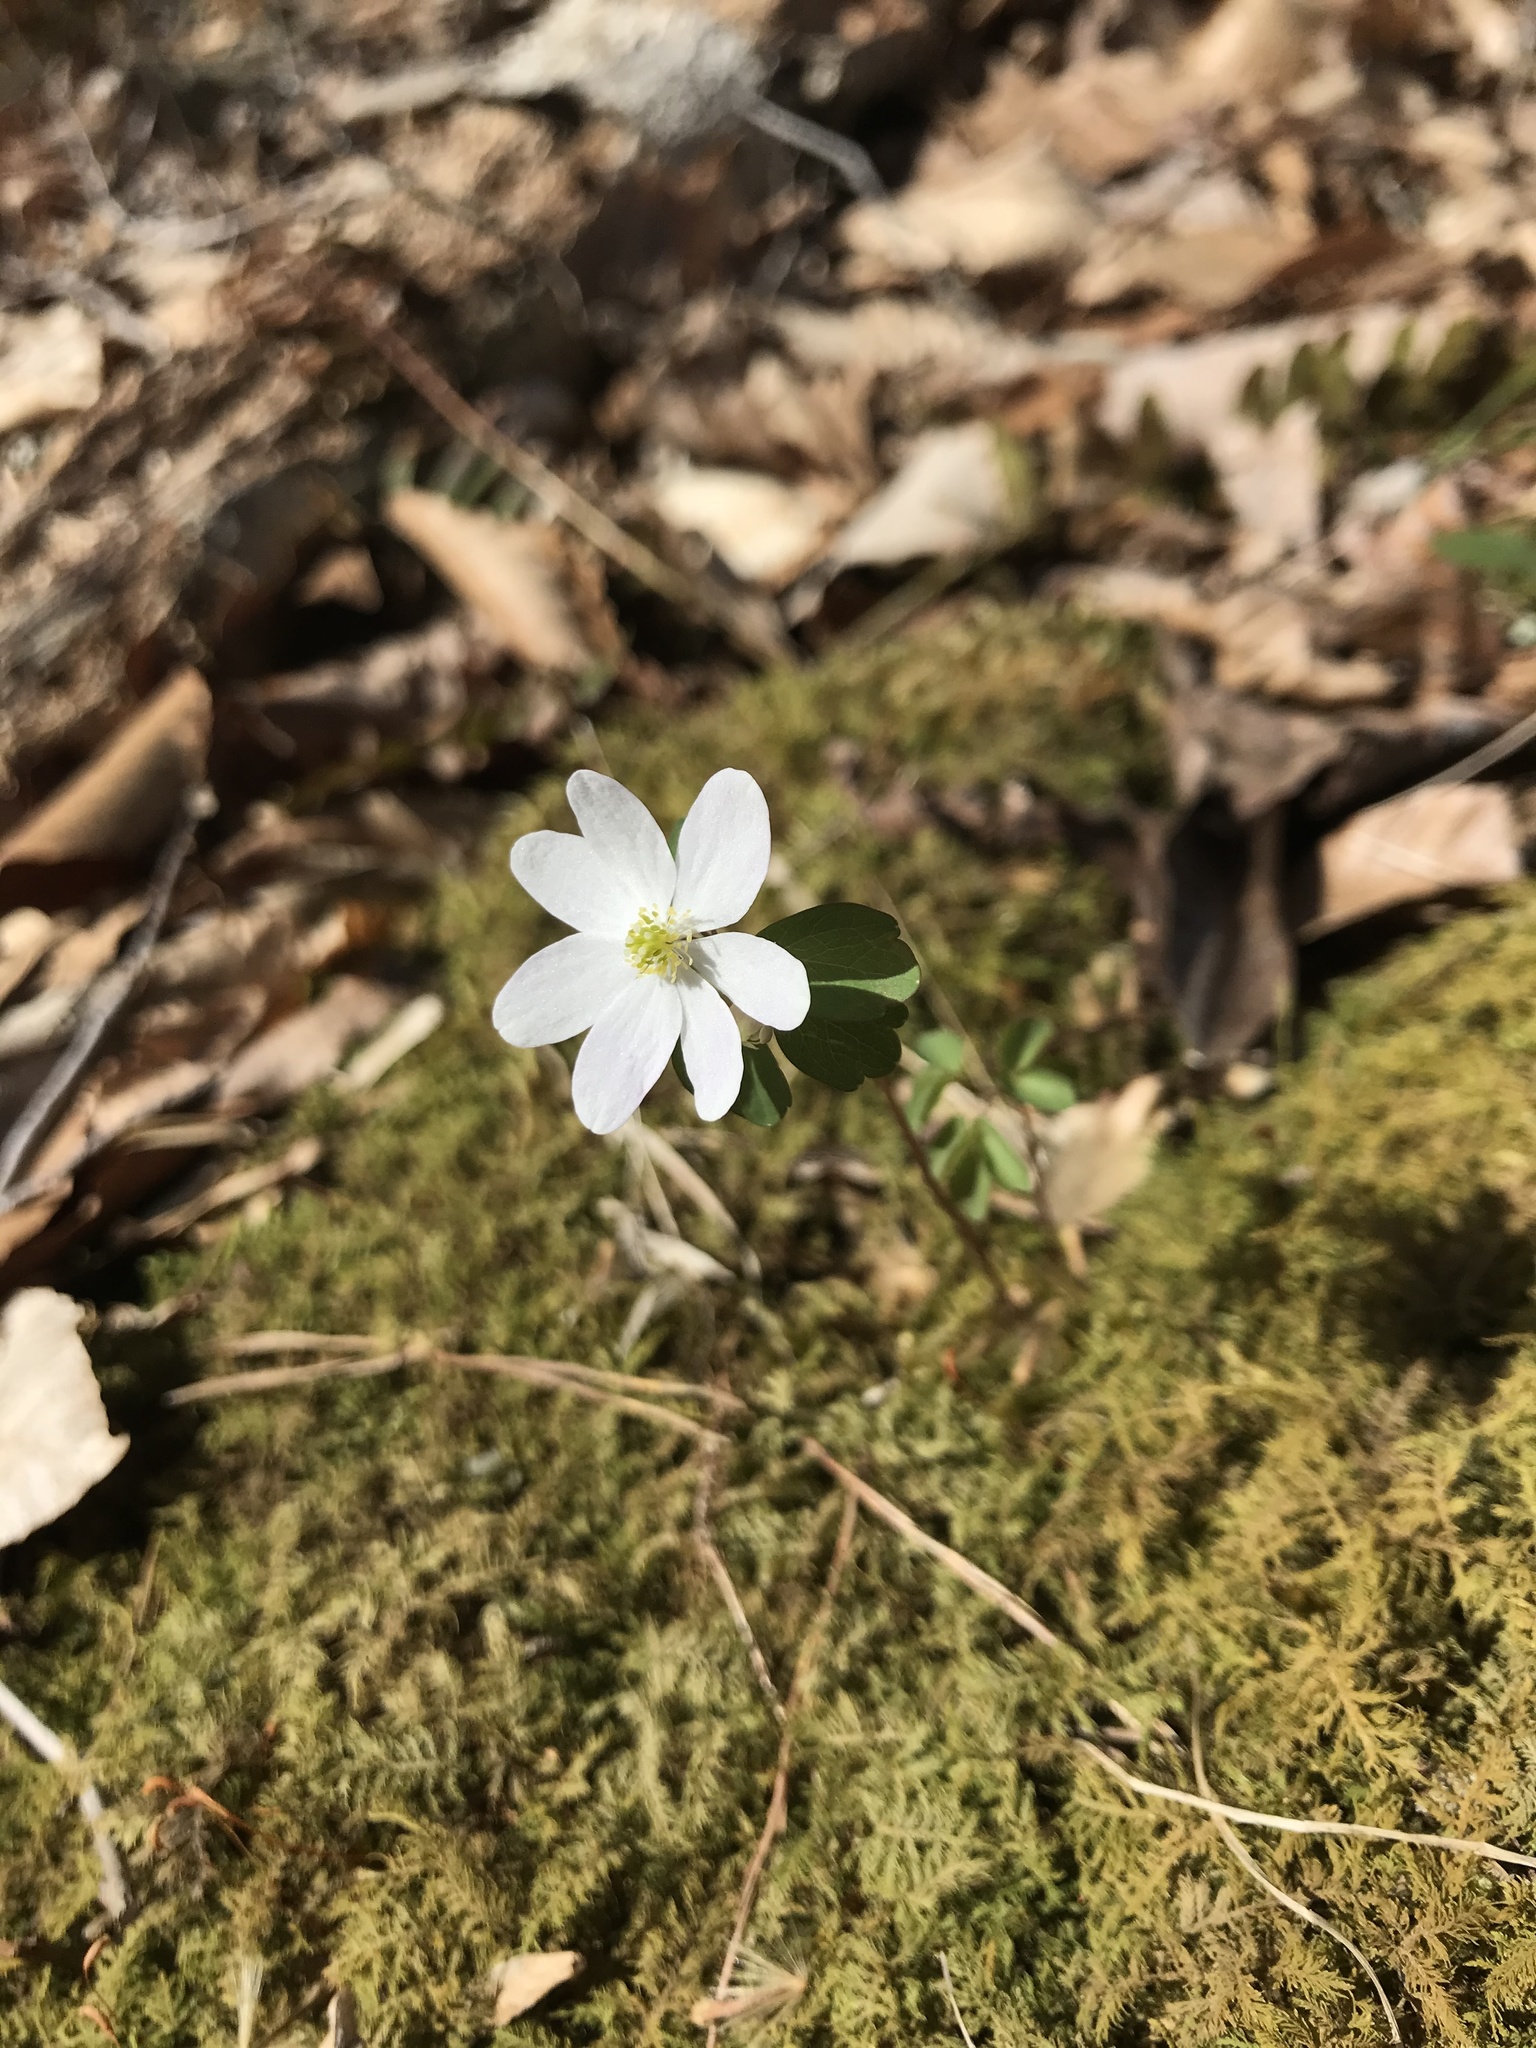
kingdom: Plantae
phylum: Tracheophyta
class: Magnoliopsida
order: Ranunculales
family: Ranunculaceae
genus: Thalictrum
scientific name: Thalictrum thalictroides
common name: Rue-anemone
